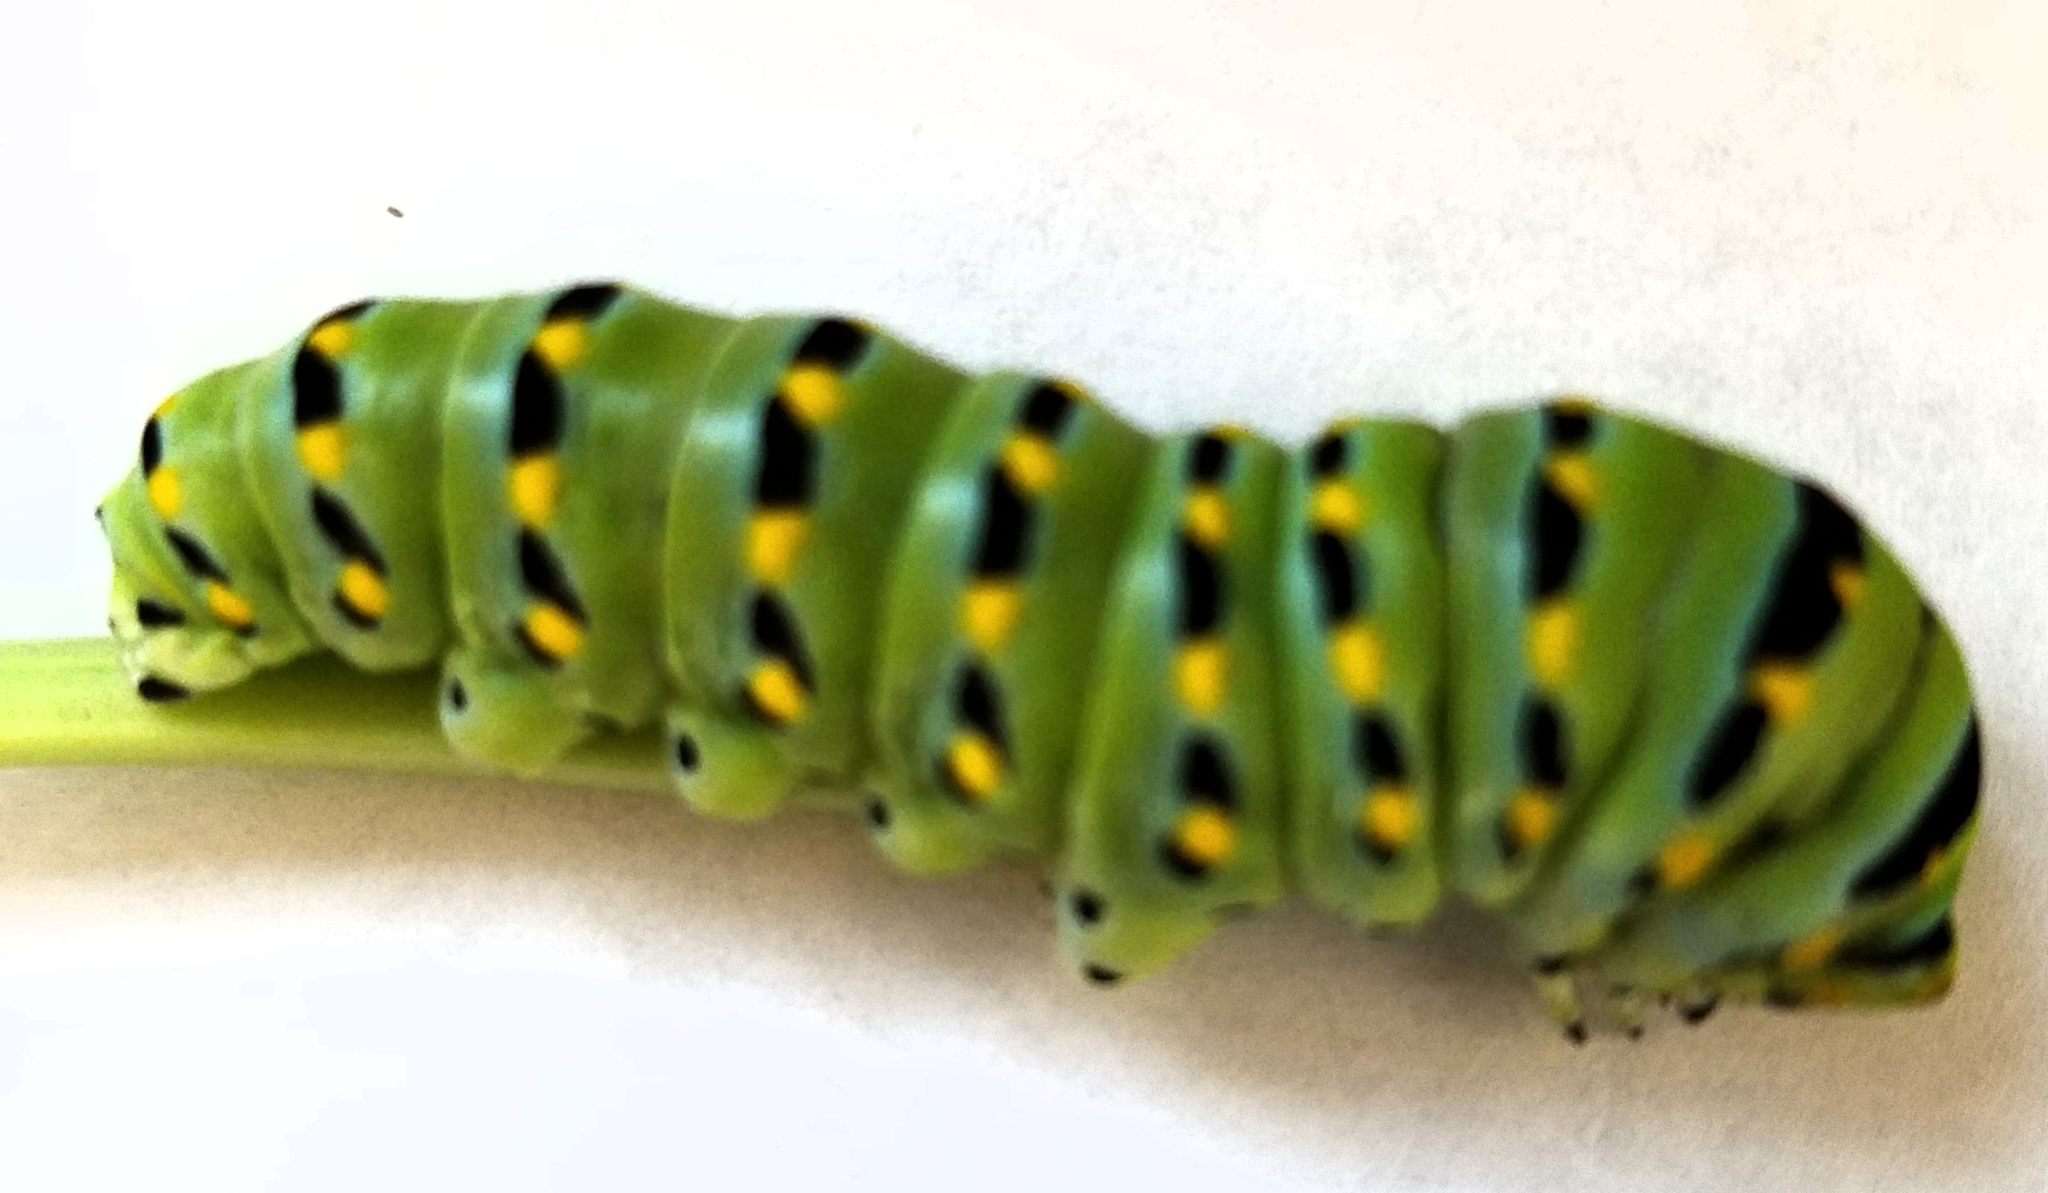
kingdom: Animalia
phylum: Arthropoda
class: Insecta
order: Lepidoptera
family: Papilionidae
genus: Papilio
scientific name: Papilio zelicaon
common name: Anise swallowtail
